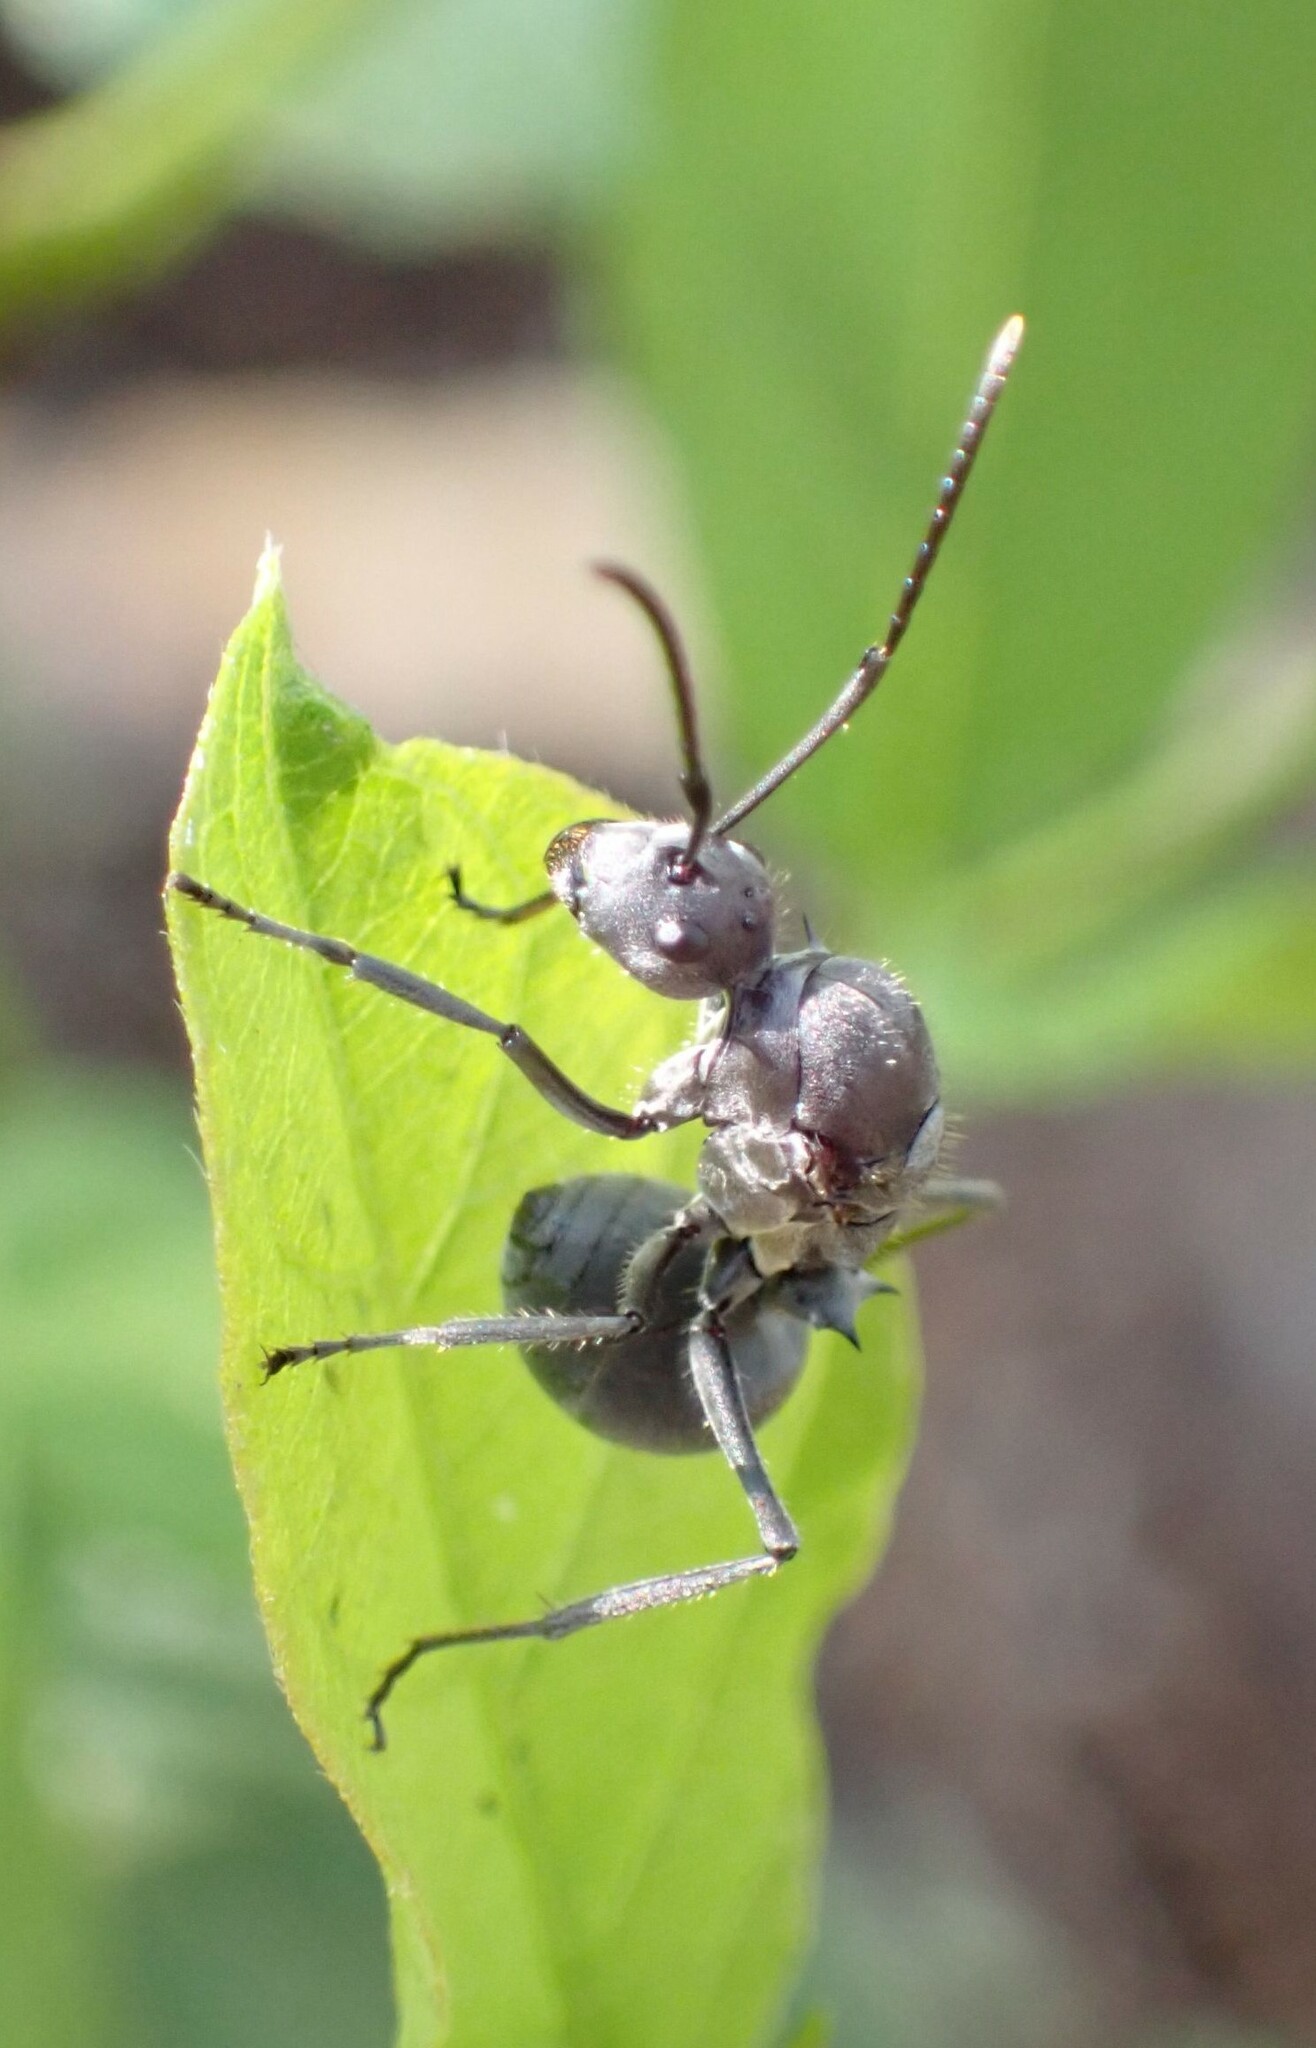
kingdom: Animalia
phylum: Arthropoda
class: Insecta
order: Hymenoptera
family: Formicidae
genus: Polyrhachis
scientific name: Polyrhachis schistacea
